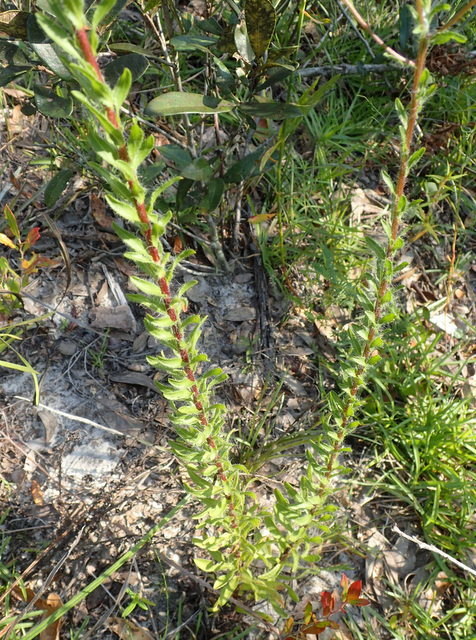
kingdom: Plantae
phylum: Tracheophyta
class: Magnoliopsida
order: Asterales
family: Asteraceae
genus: Chrysopsis
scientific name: Chrysopsis gossypina
